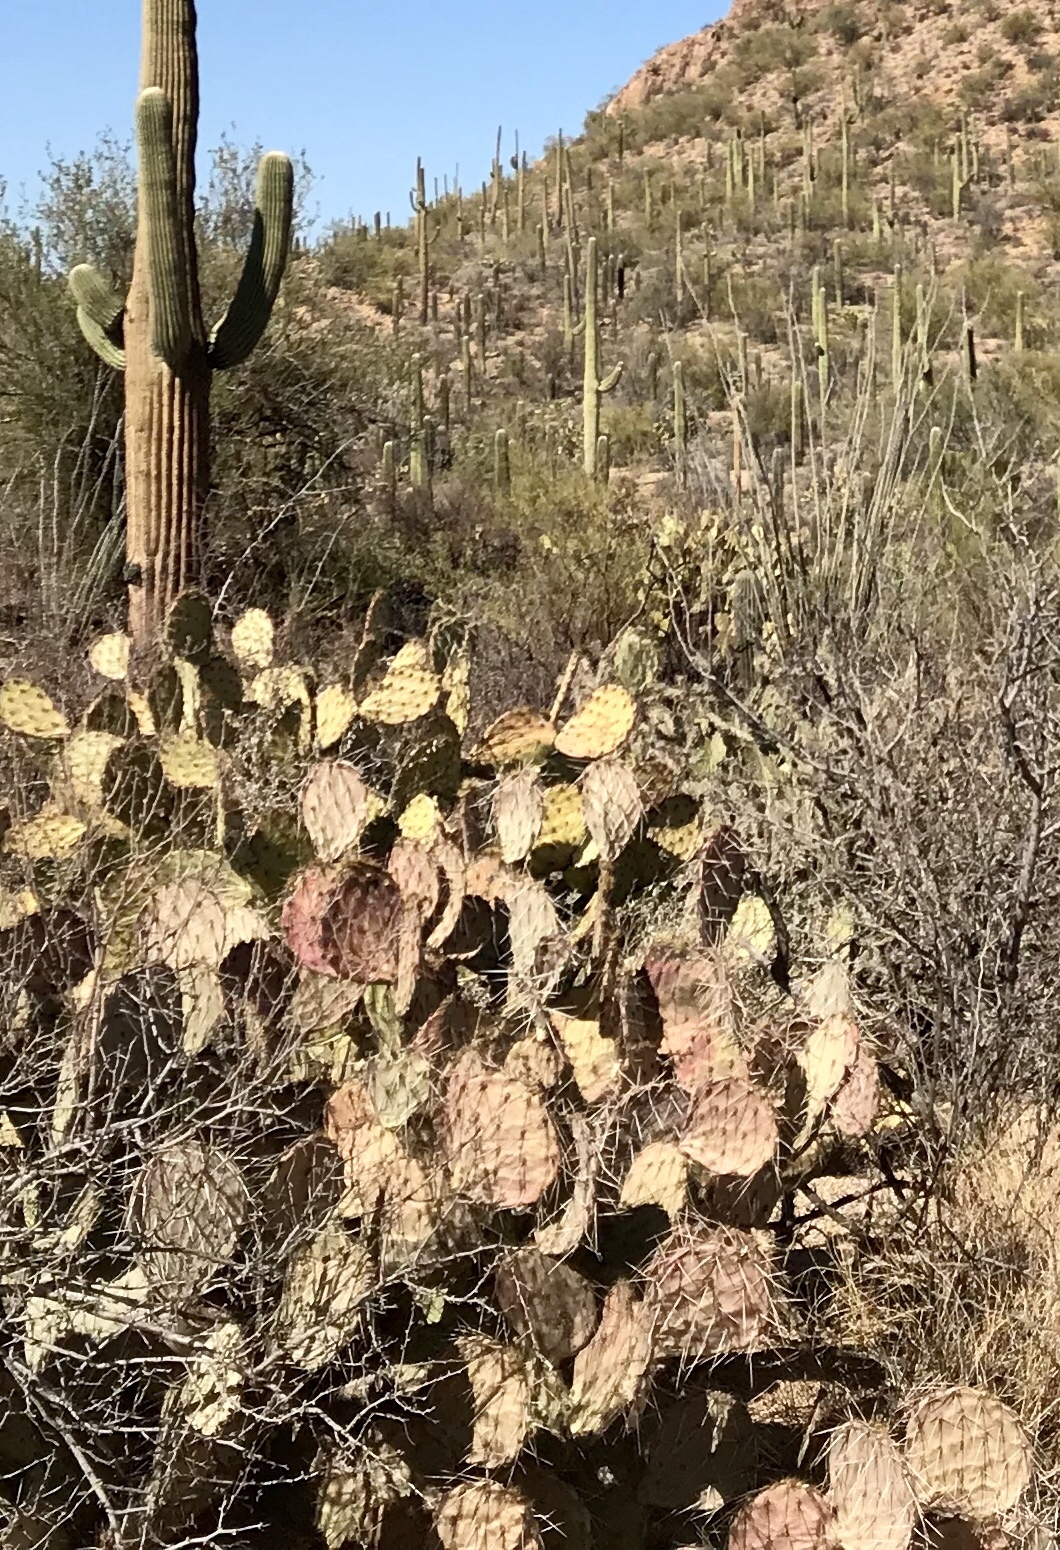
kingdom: Plantae
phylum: Tracheophyta
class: Magnoliopsida
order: Caryophyllales
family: Cactaceae
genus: Opuntia
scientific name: Opuntia engelmannii
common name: Cactus-apple
